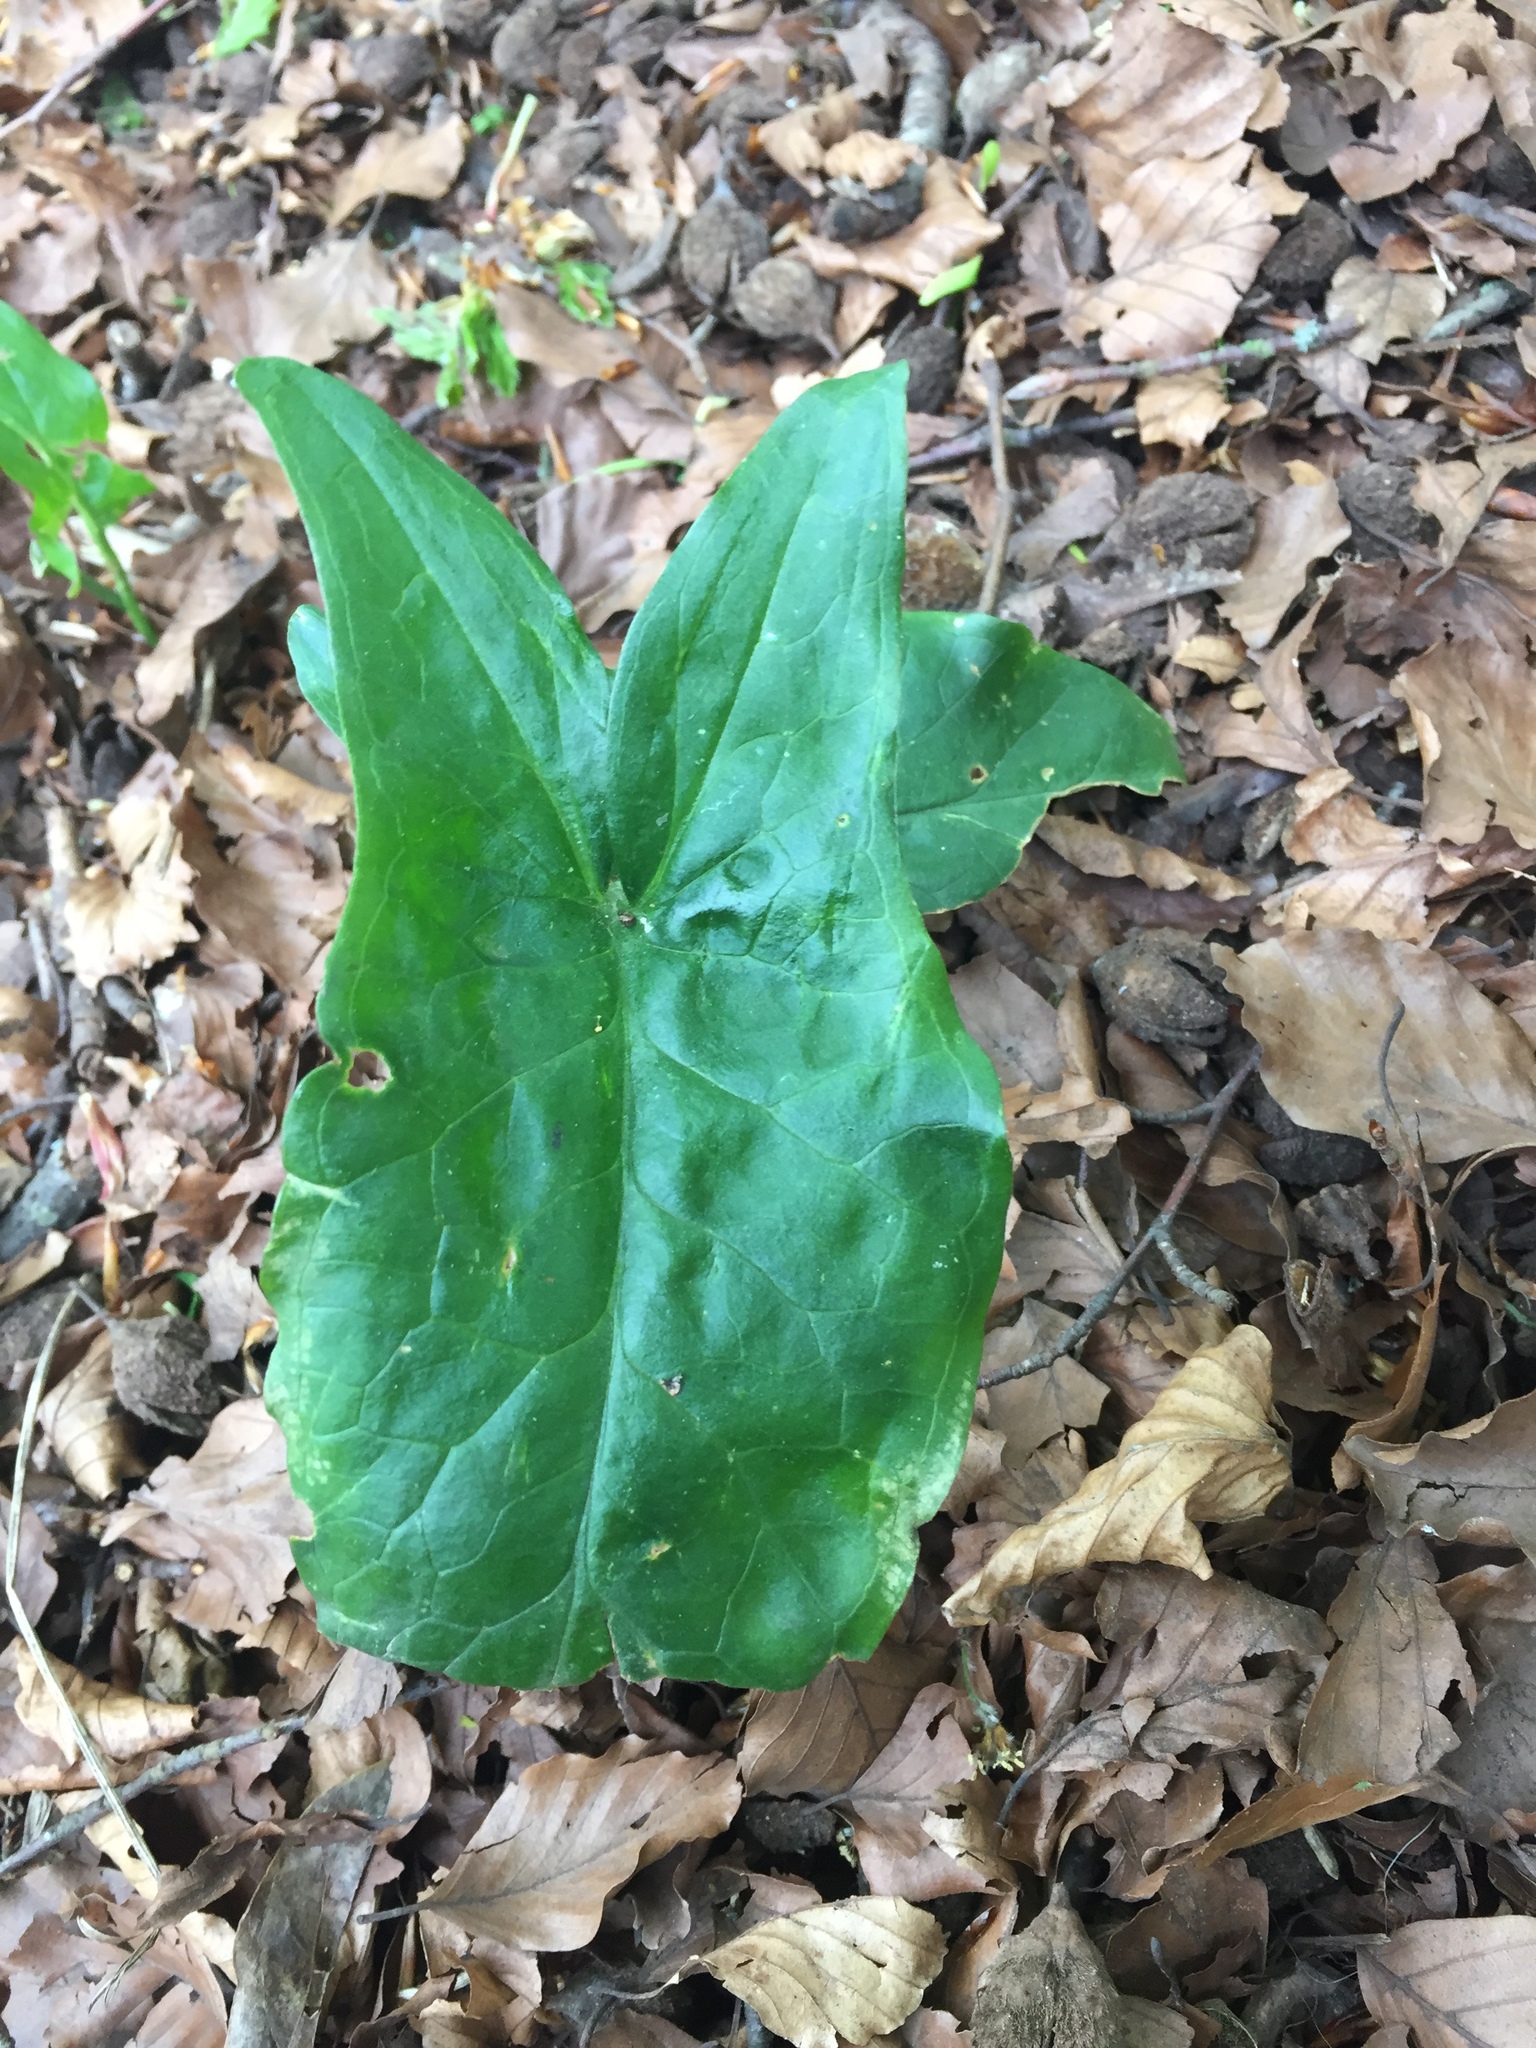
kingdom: Plantae
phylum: Tracheophyta
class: Liliopsida
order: Alismatales
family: Araceae
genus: Arum
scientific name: Arum maculatum
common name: Lords-and-ladies
